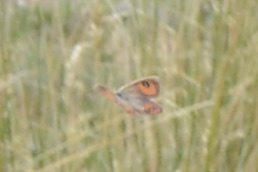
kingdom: Animalia
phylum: Arthropoda
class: Insecta
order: Lepidoptera
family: Nymphalidae
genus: Argyrophenga
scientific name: Argyrophenga antipodum
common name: Common tussock butterfly
